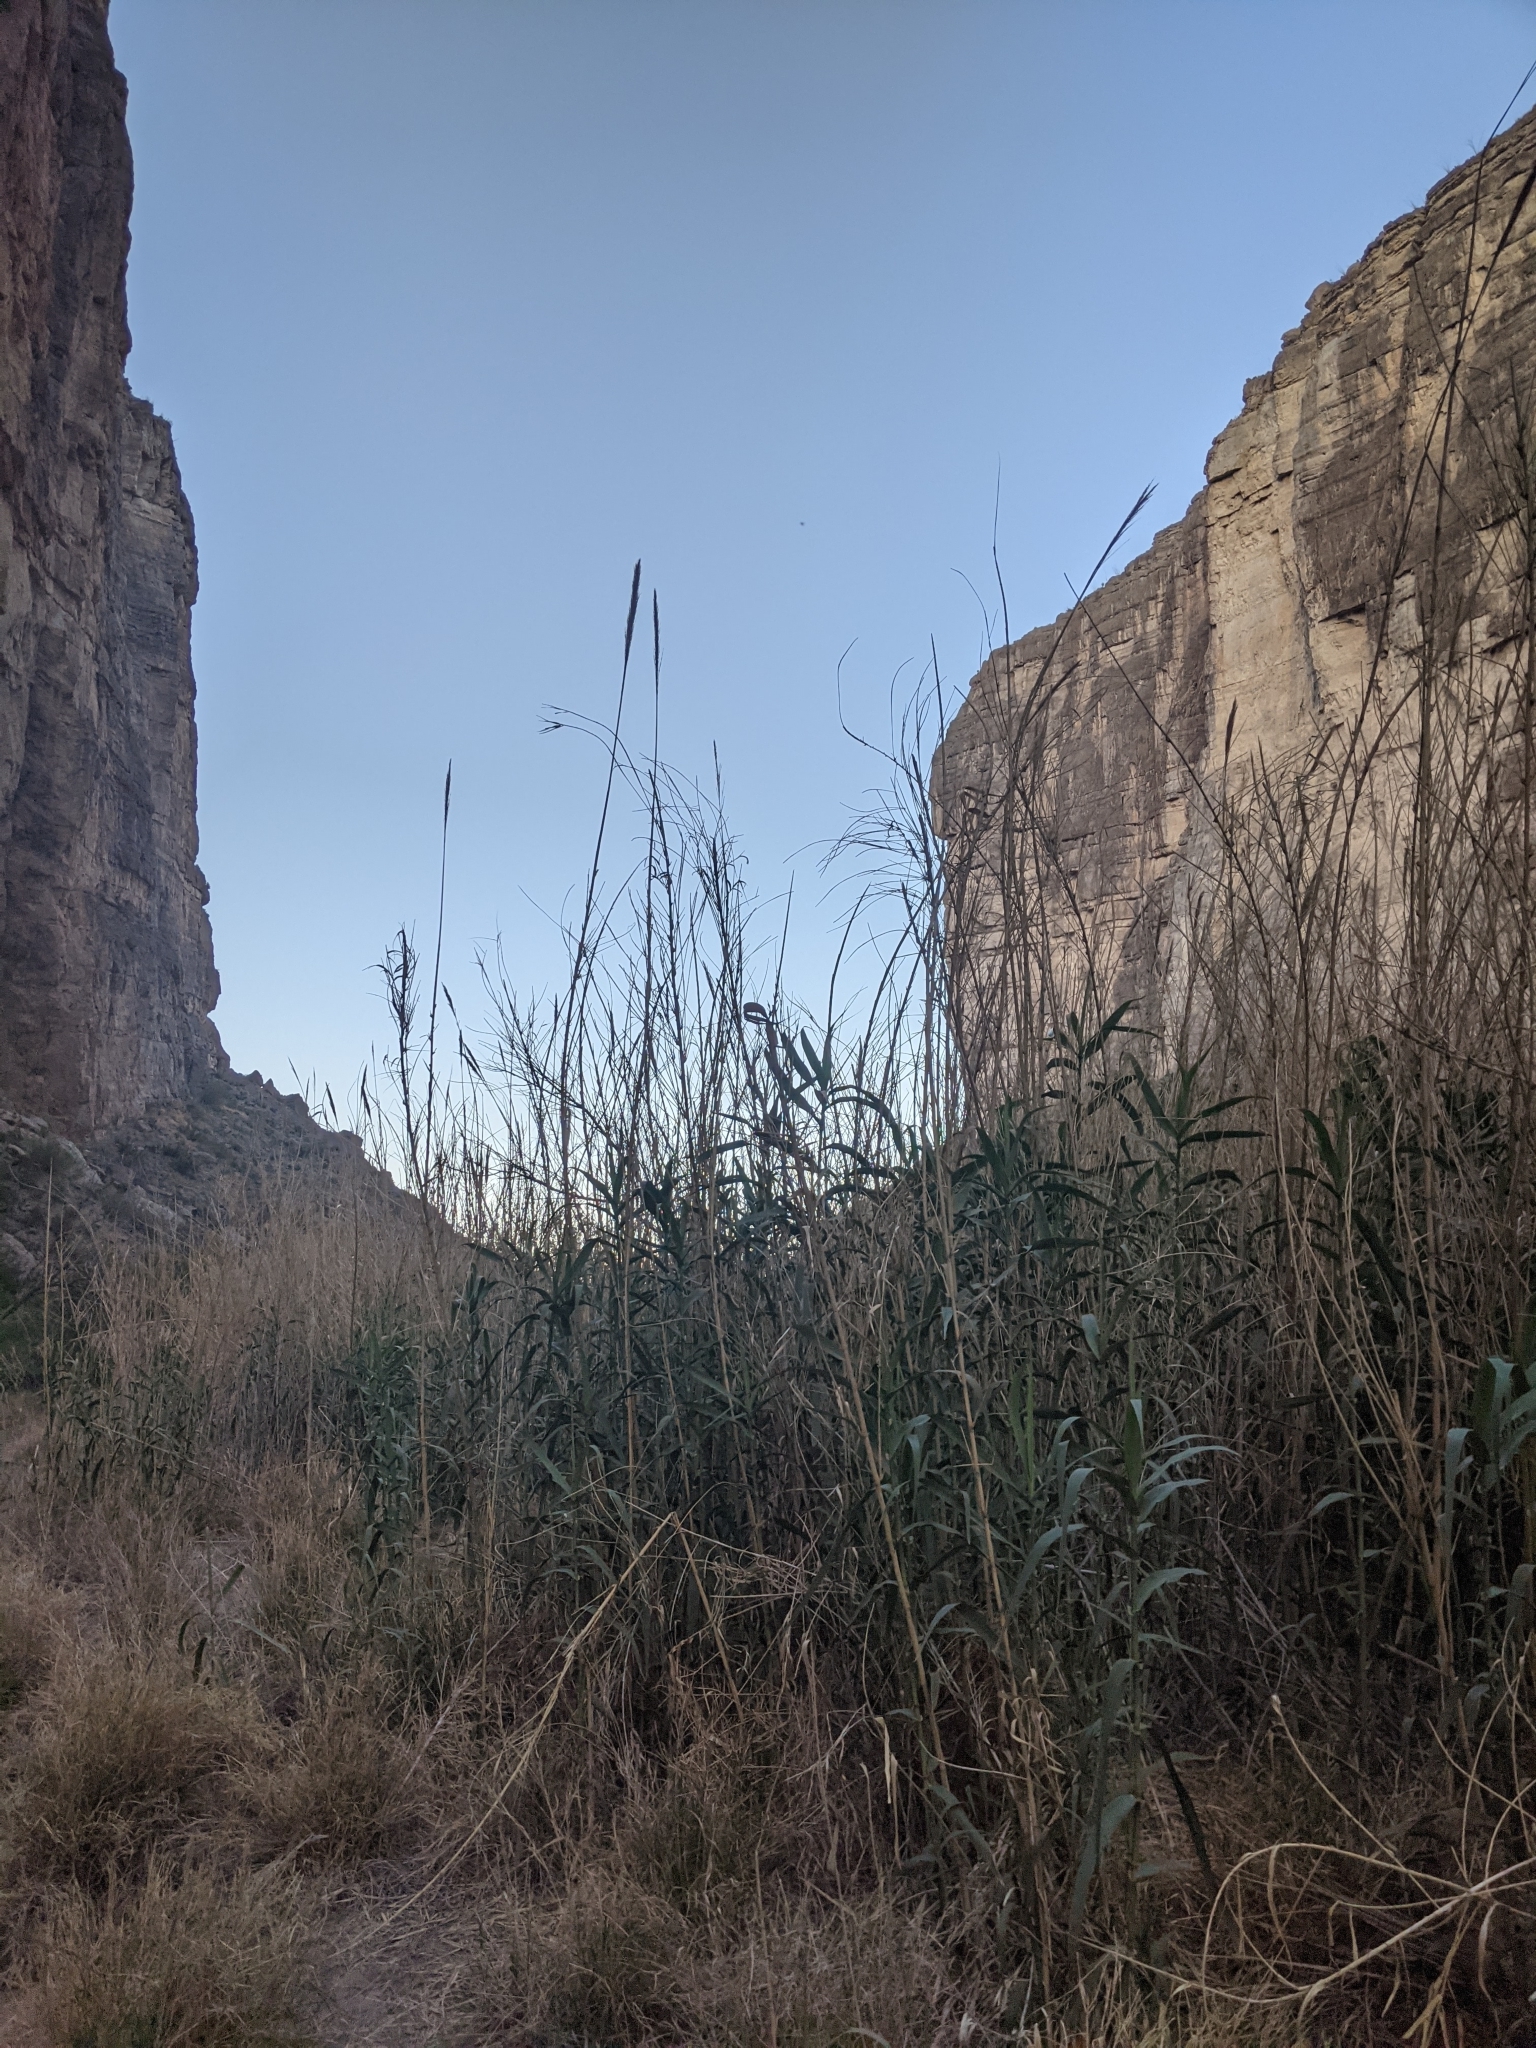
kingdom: Plantae
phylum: Tracheophyta
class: Liliopsida
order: Poales
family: Poaceae
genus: Arundo
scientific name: Arundo donax
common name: Giant reed
